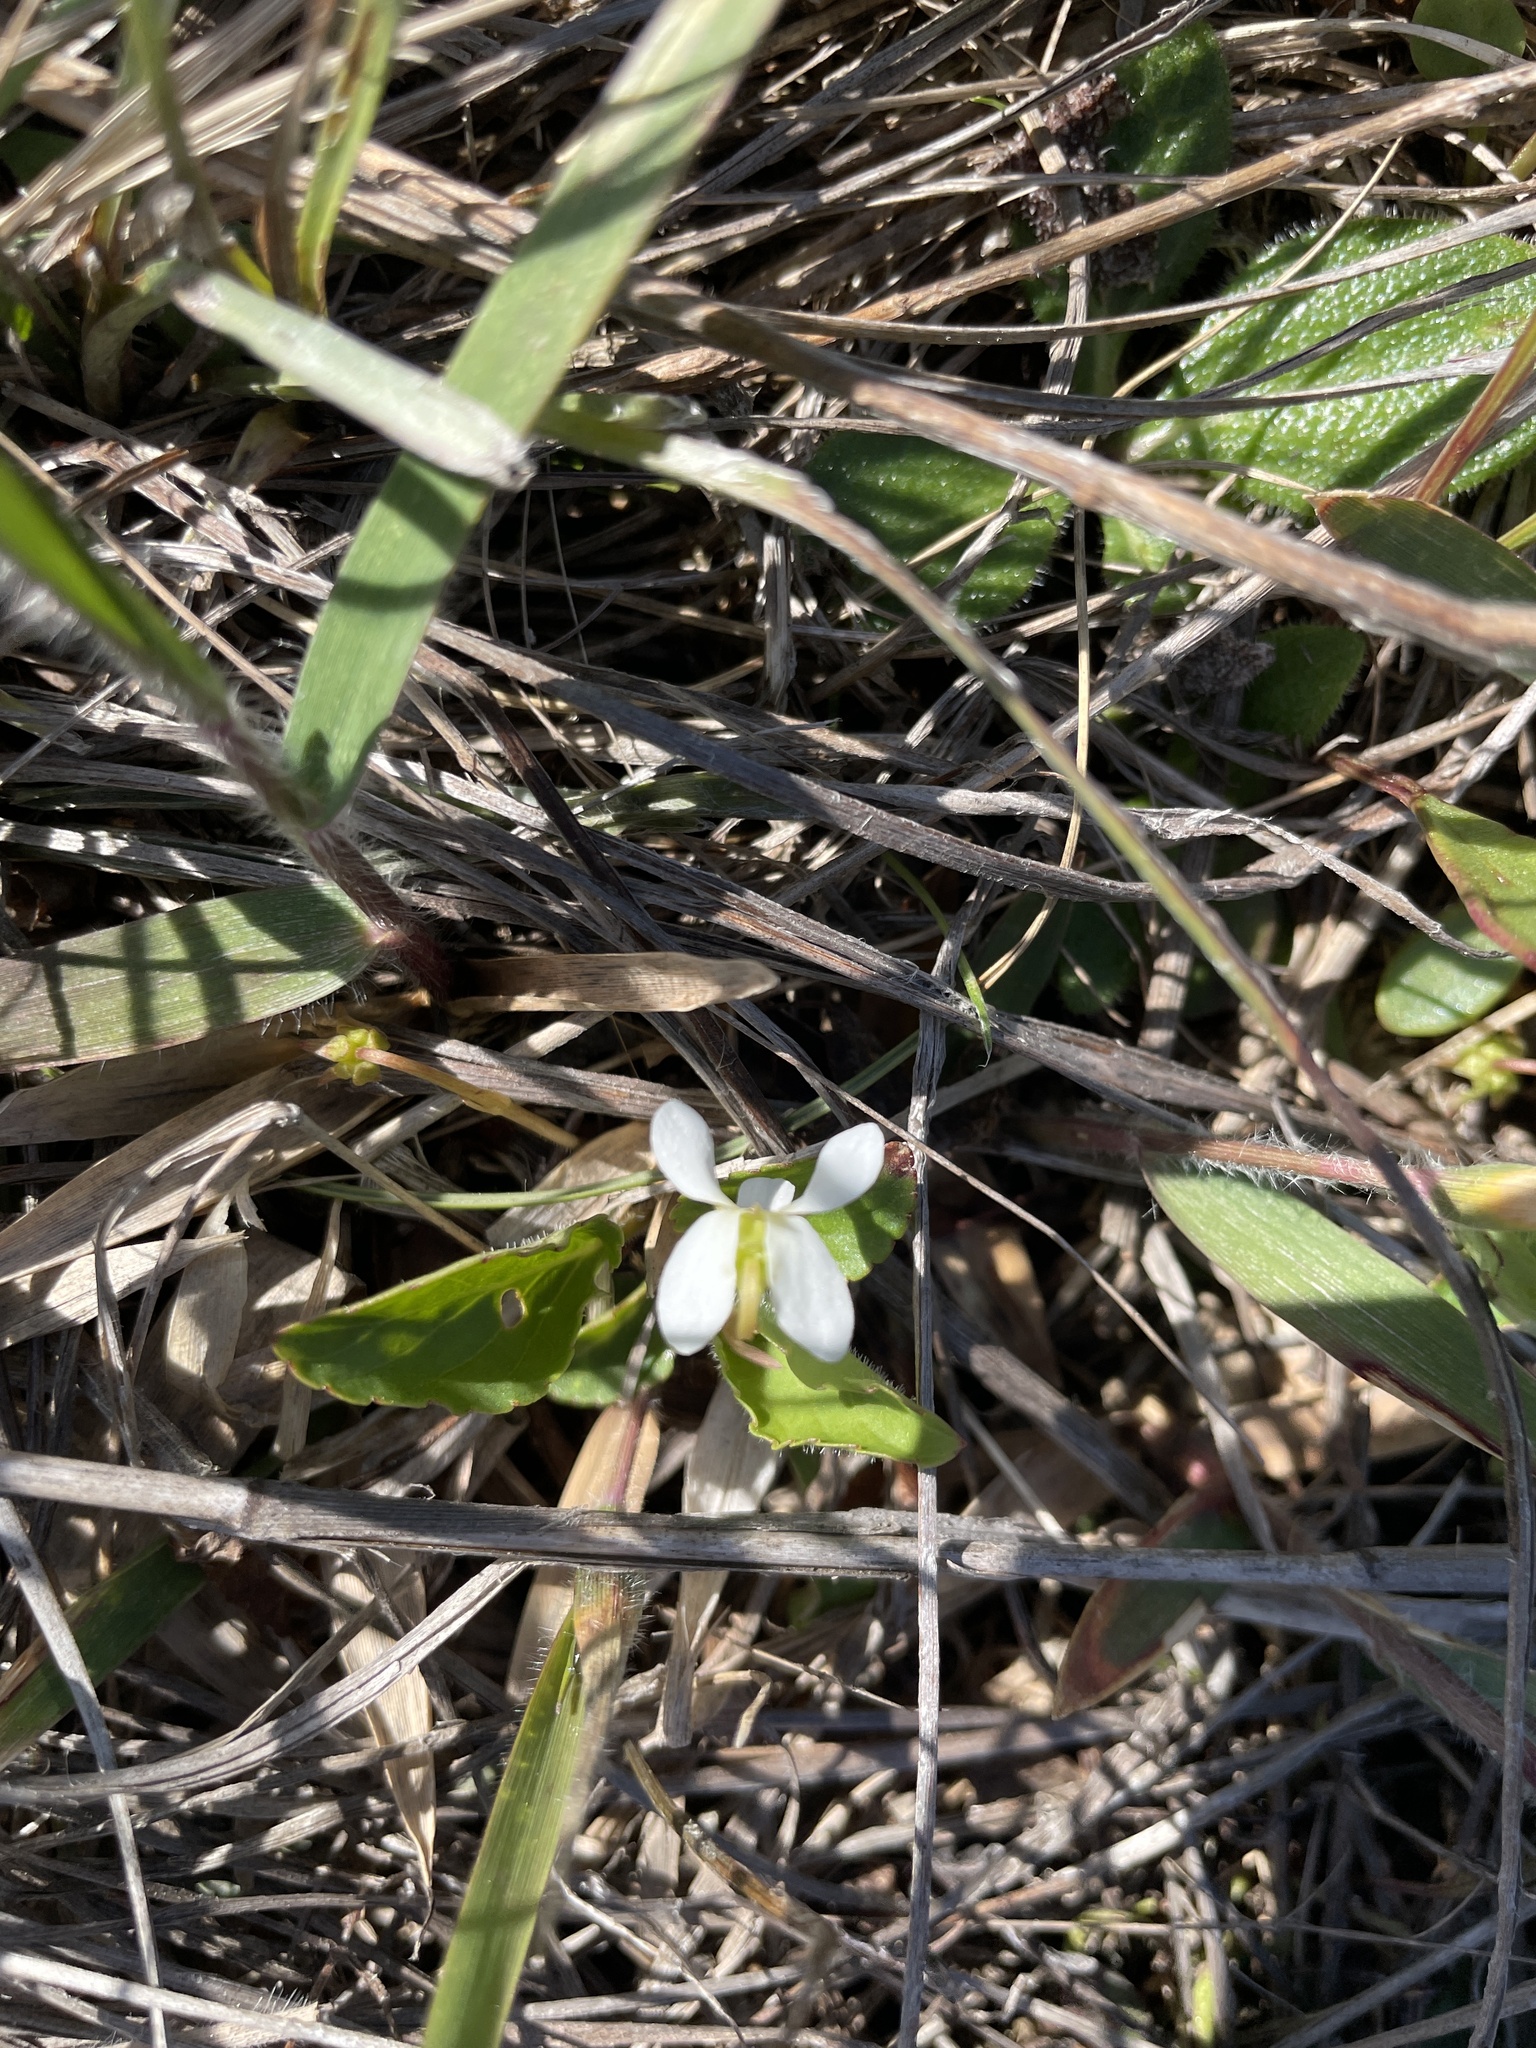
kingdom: Plantae
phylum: Tracheophyta
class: Magnoliopsida
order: Malpighiales
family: Violaceae
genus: Viola
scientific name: Viola primulifolia
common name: Primrose-leaf violet
